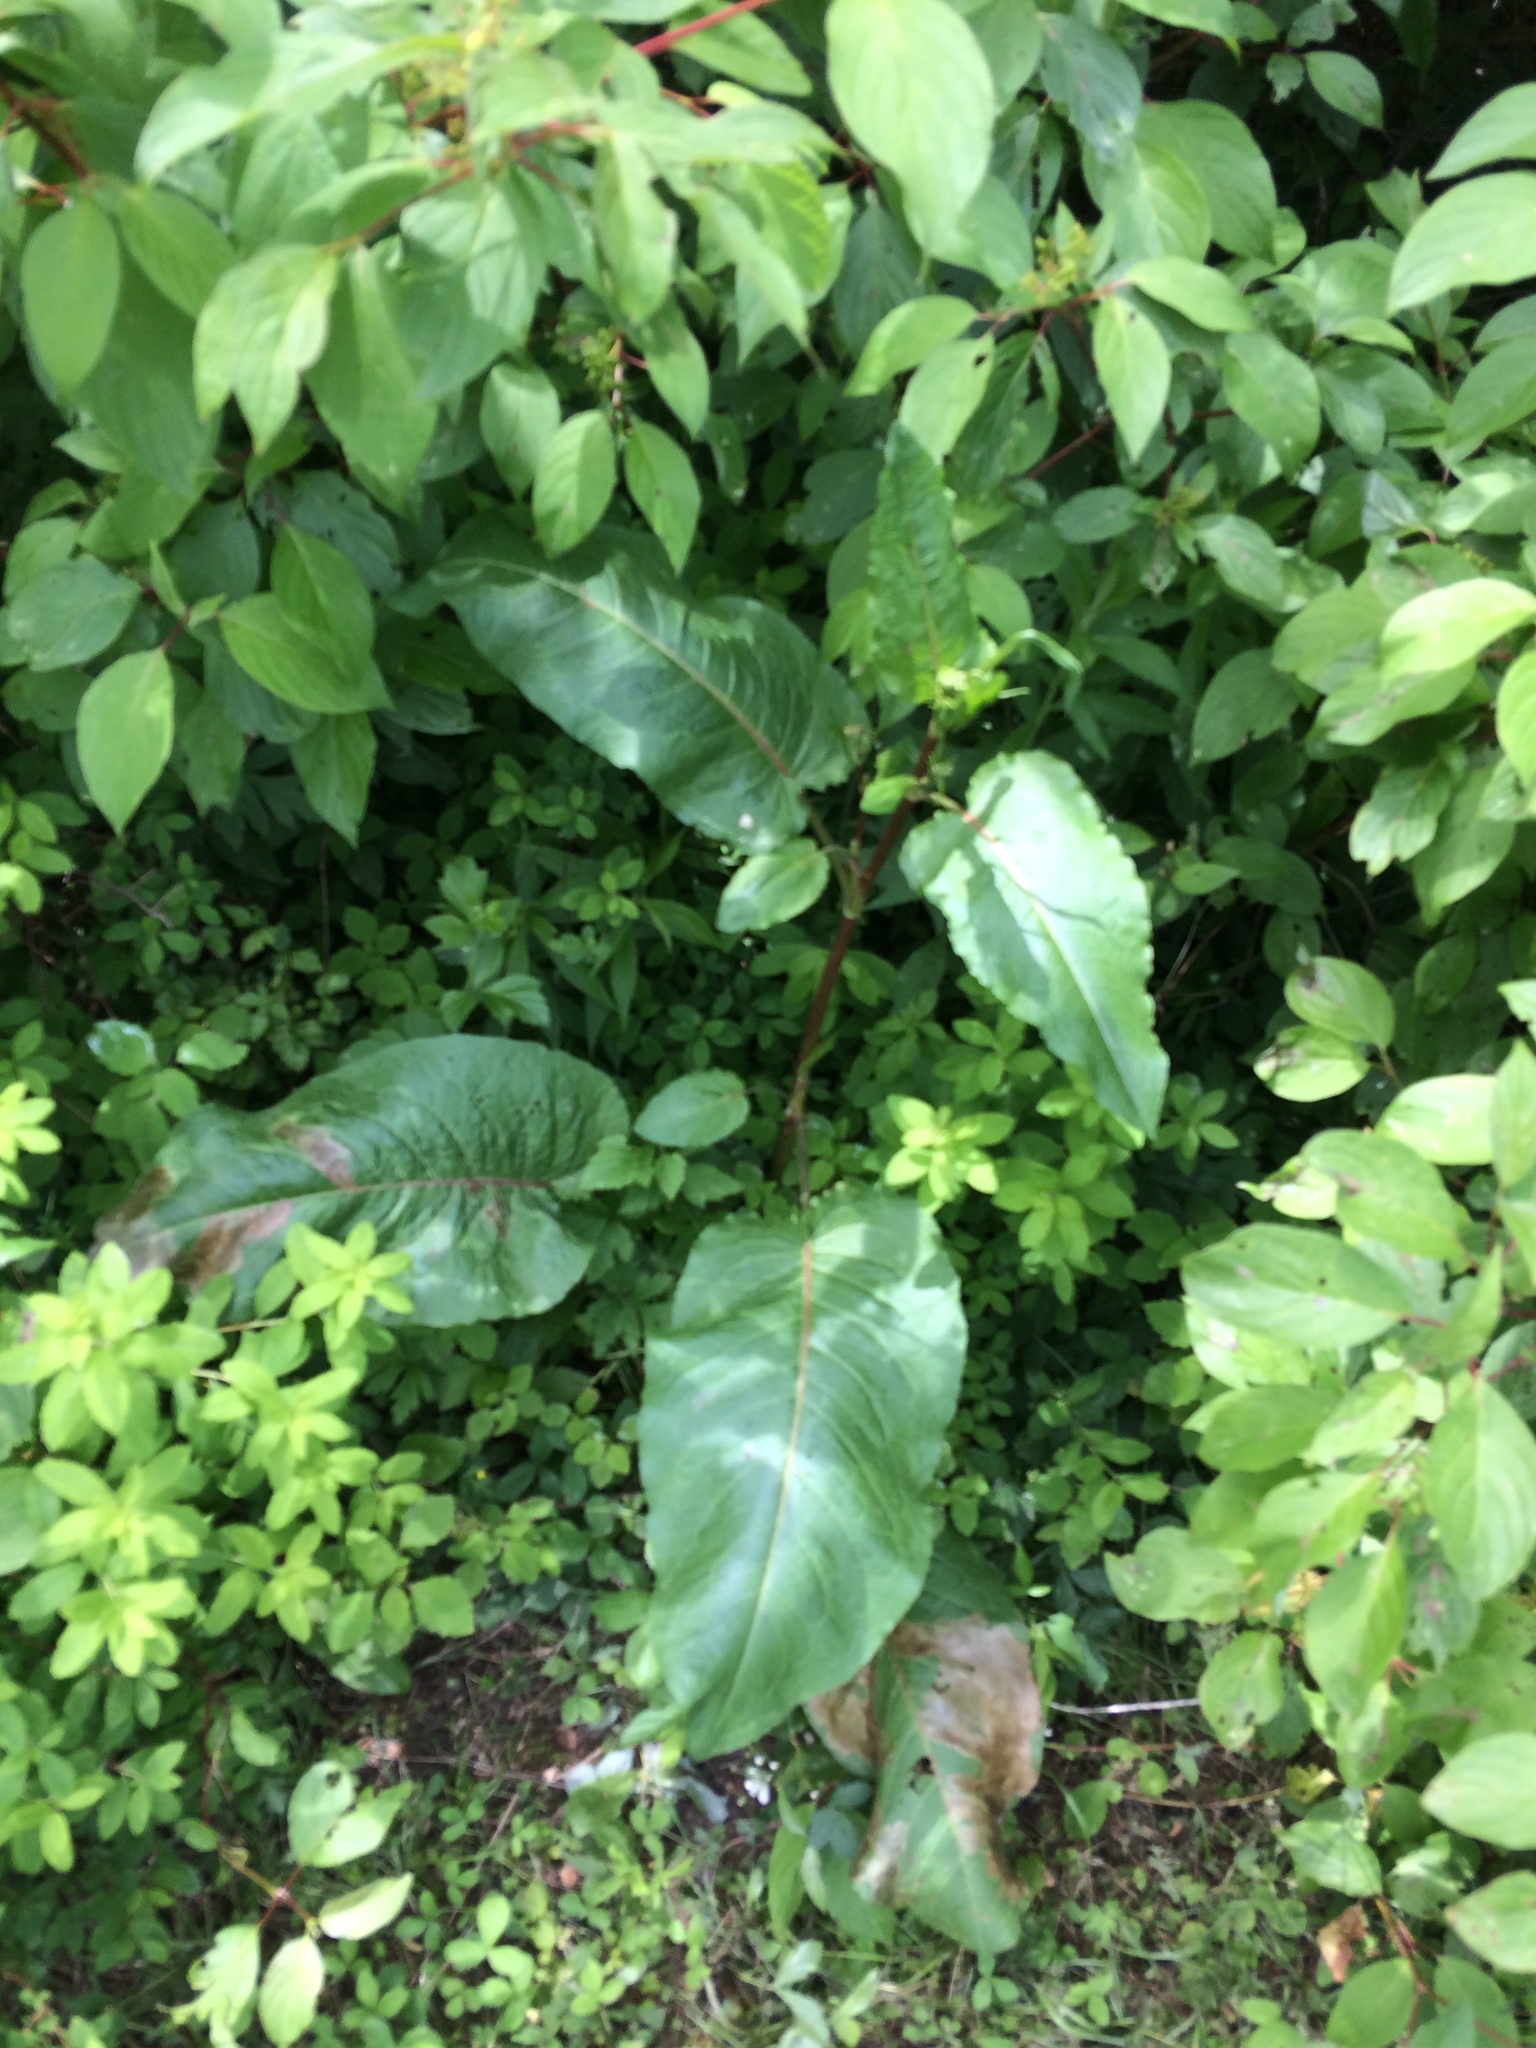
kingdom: Plantae
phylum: Tracheophyta
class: Magnoliopsida
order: Caryophyllales
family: Polygonaceae
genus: Rumex
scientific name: Rumex obtusifolius
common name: Bitter dock
